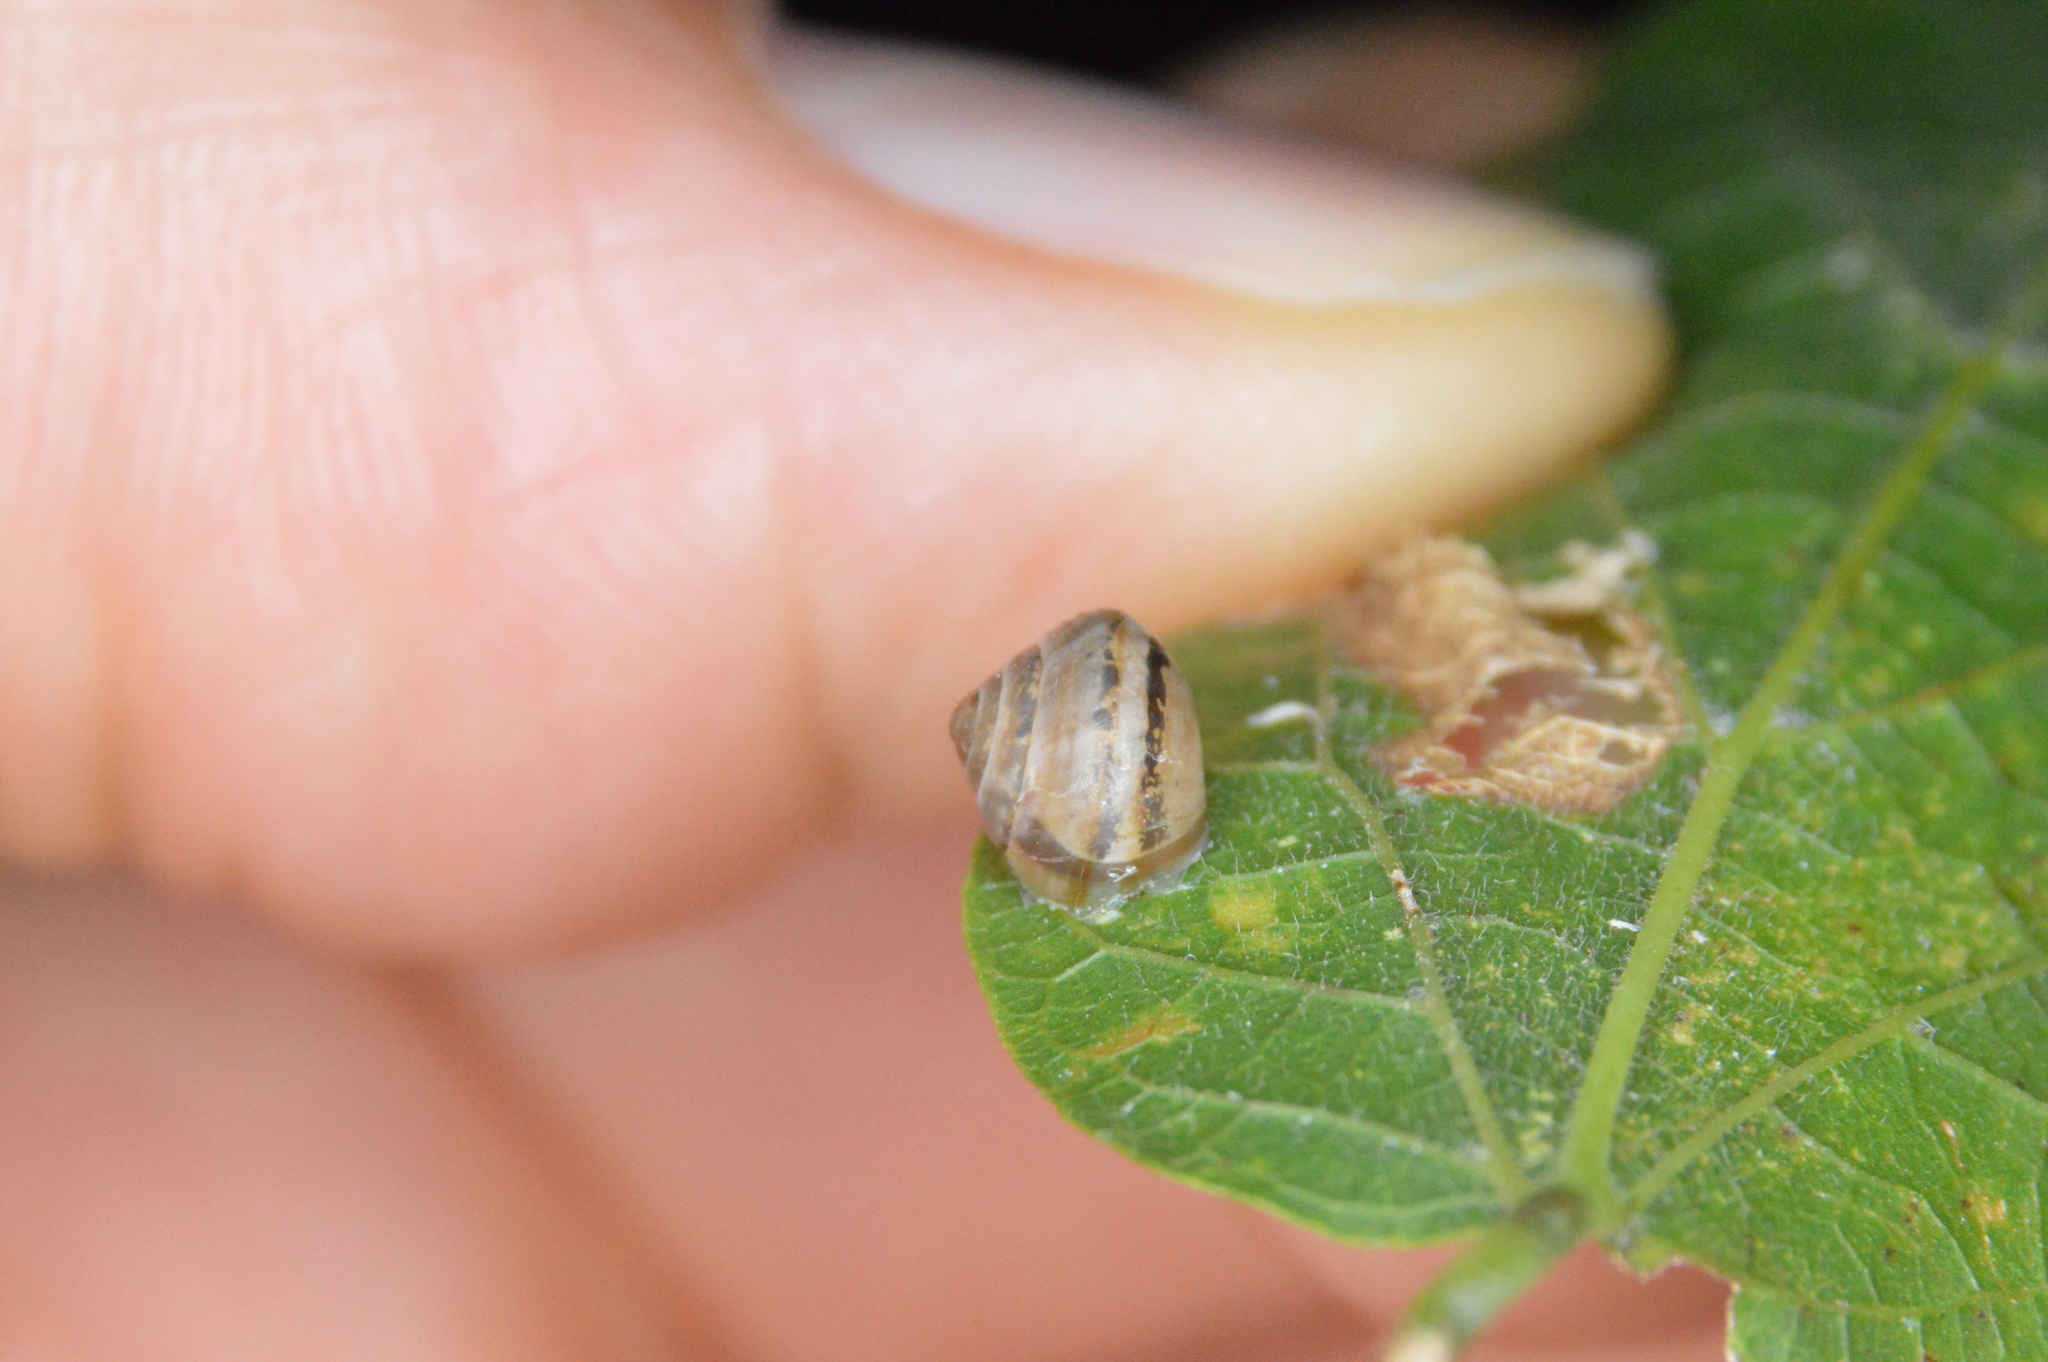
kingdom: Animalia
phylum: Mollusca
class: Gastropoda
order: Cycloneritida
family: Helicinidae
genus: Helicina
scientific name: Helicina orbiculata
